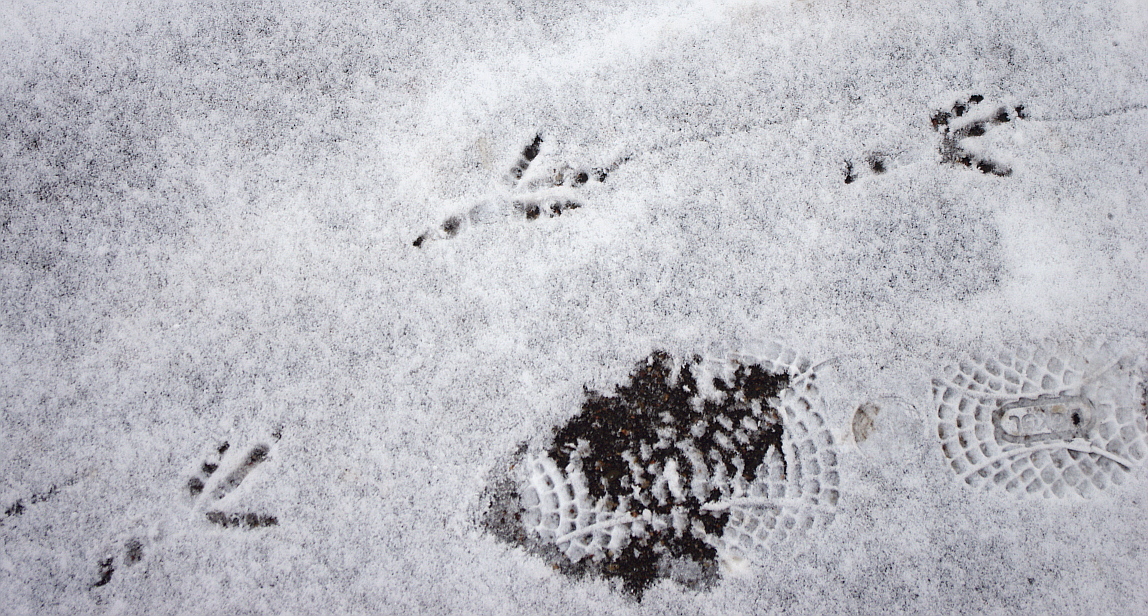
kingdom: Animalia
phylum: Chordata
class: Aves
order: Passeriformes
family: Corvidae
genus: Corvus
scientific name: Corvus cornix
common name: Hooded crow
